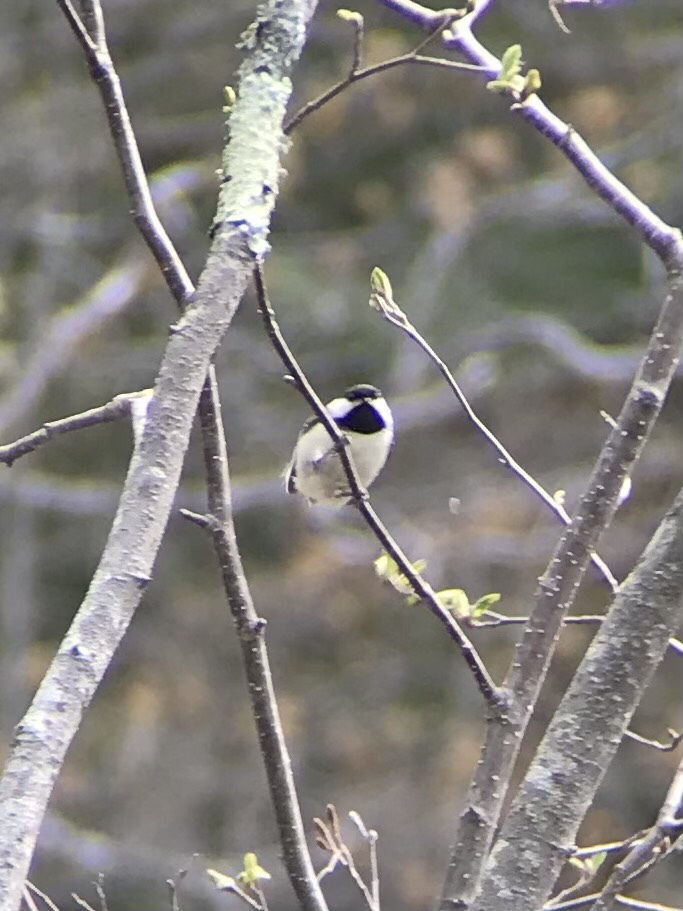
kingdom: Animalia
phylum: Chordata
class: Aves
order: Passeriformes
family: Paridae
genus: Poecile
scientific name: Poecile atricapillus
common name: Black-capped chickadee
